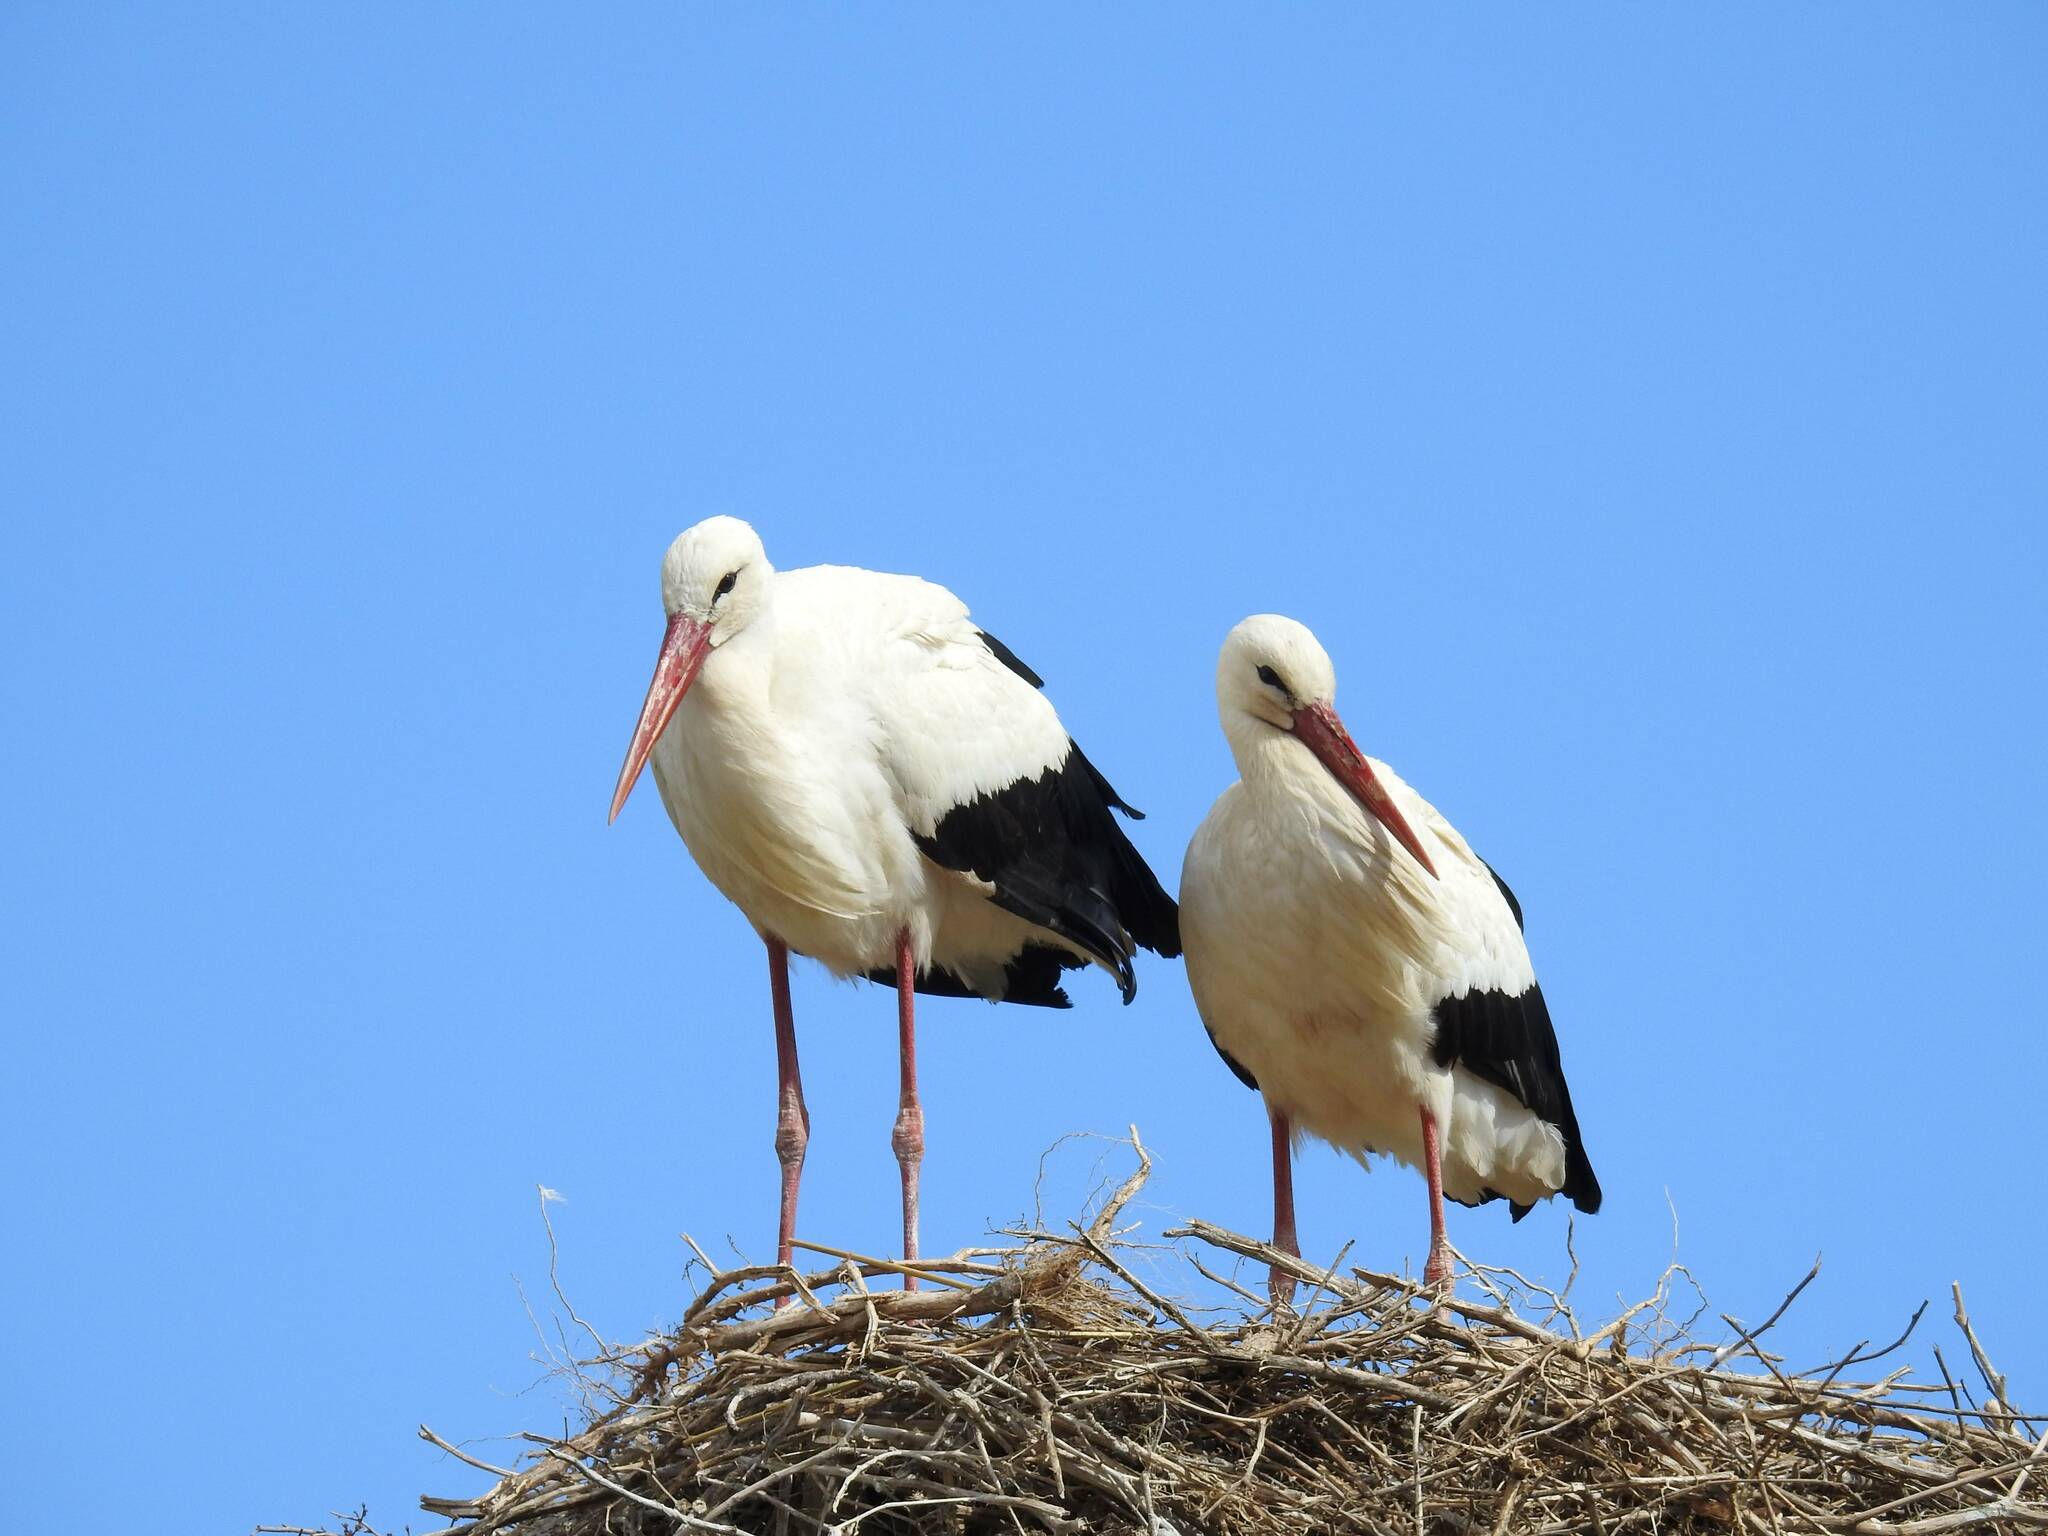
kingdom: Animalia
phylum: Chordata
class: Aves
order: Ciconiiformes
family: Ciconiidae
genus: Ciconia
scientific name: Ciconia ciconia
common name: White stork
